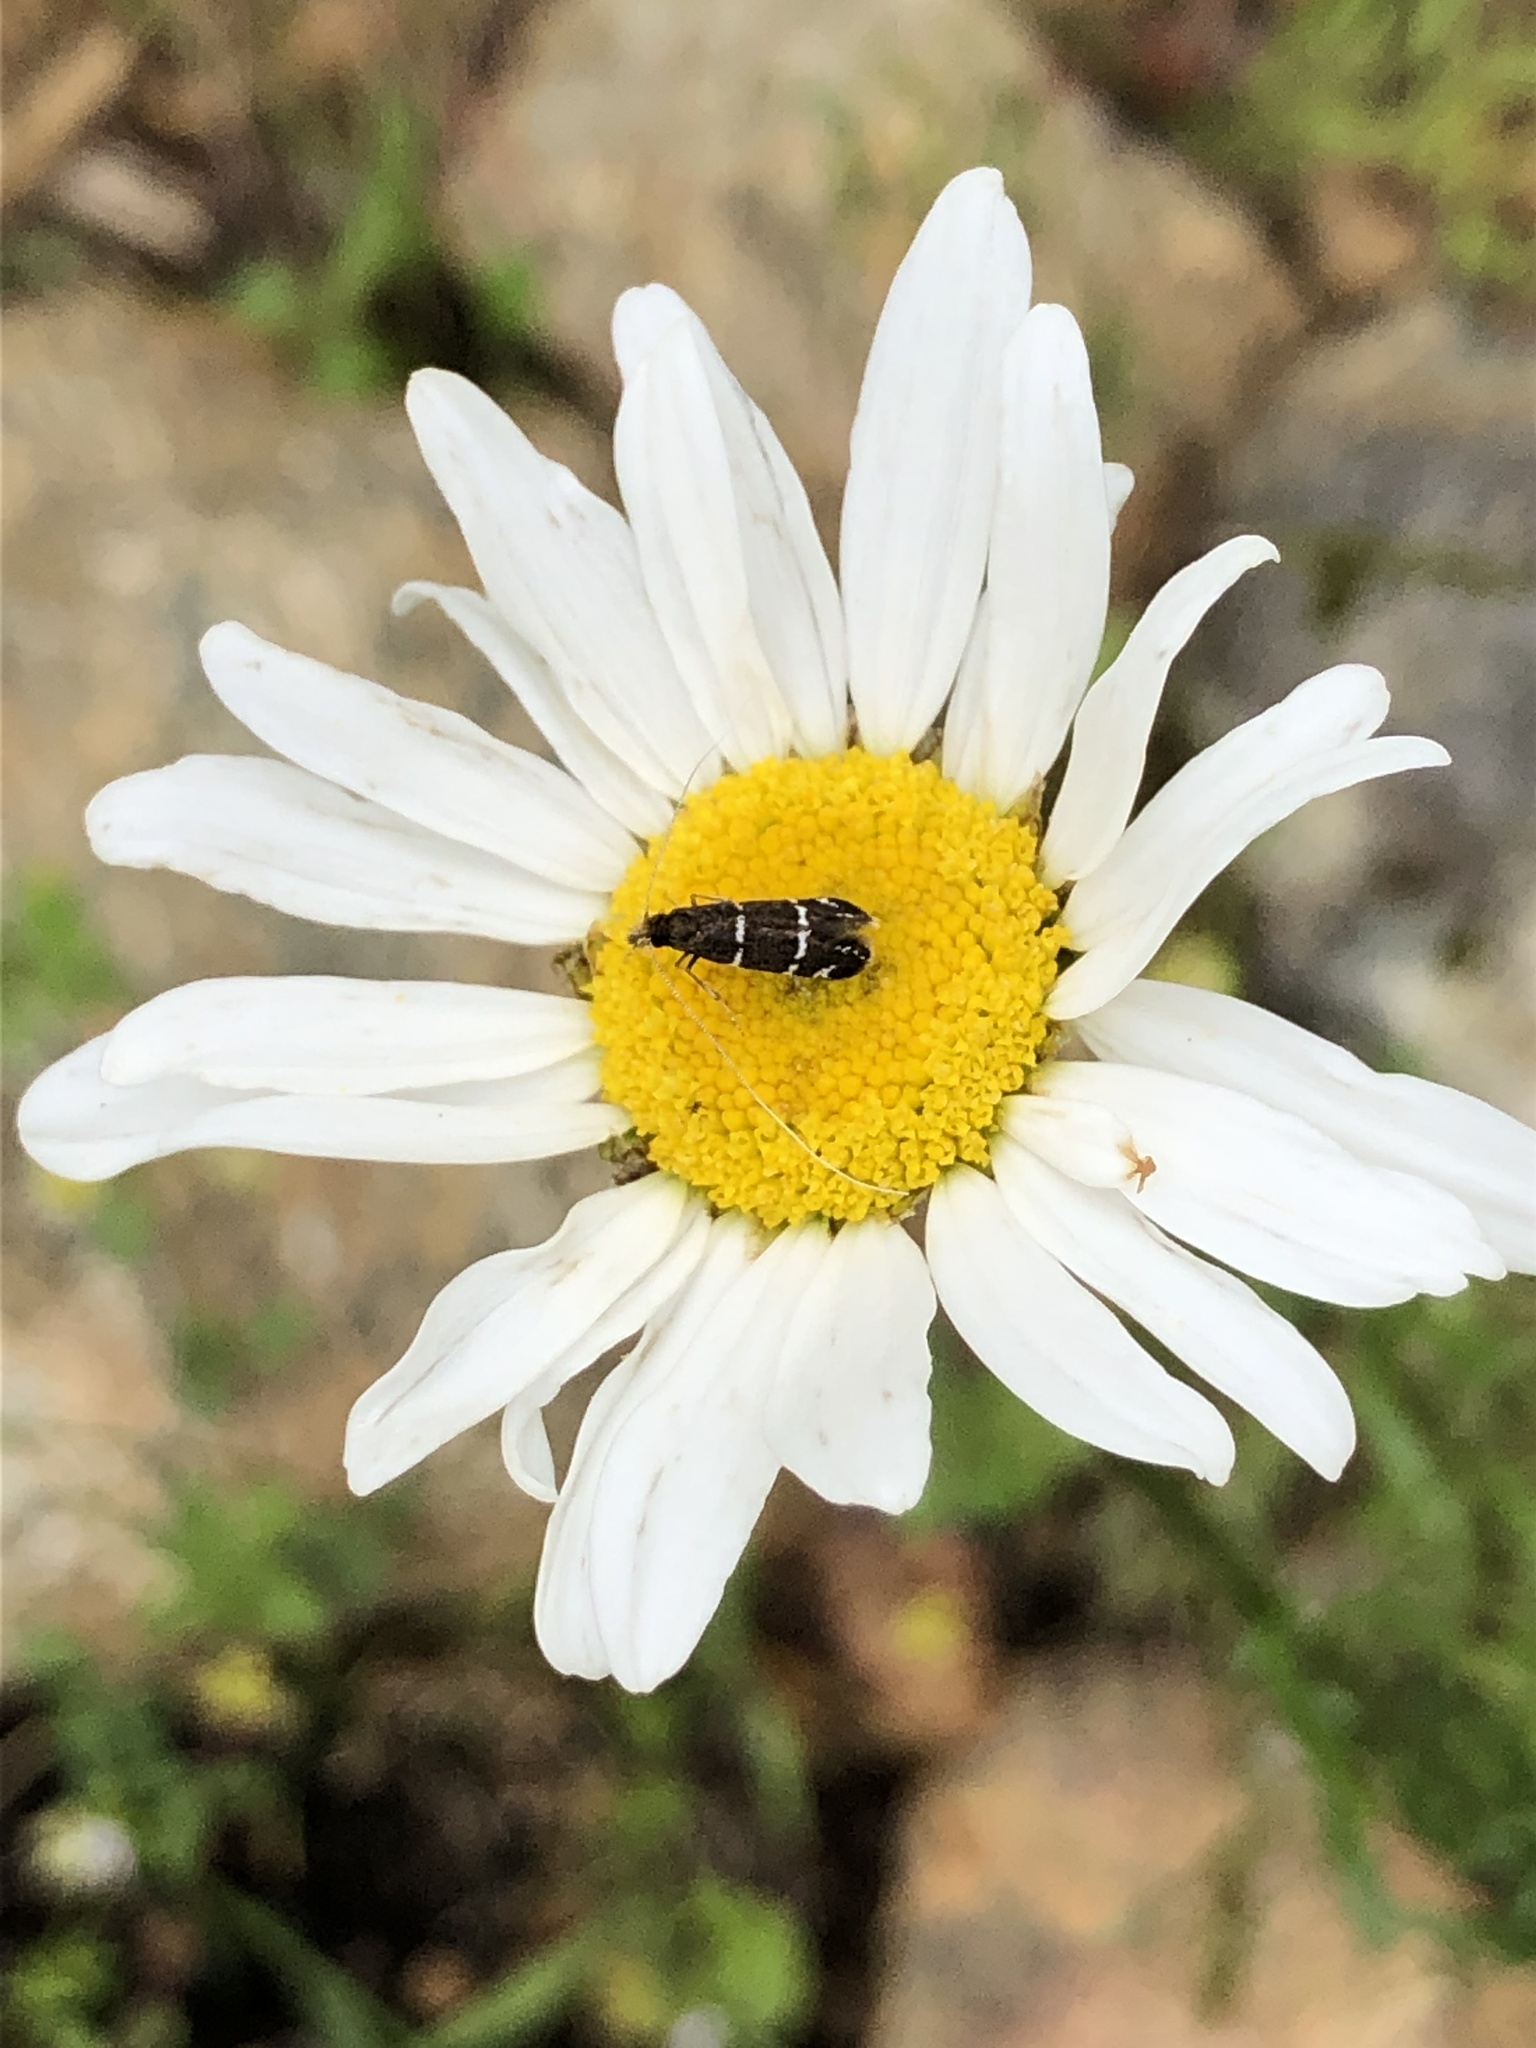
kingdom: Animalia
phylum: Arthropoda
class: Insecta
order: Lepidoptera
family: Adelidae
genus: Adela
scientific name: Adela septentrionella
